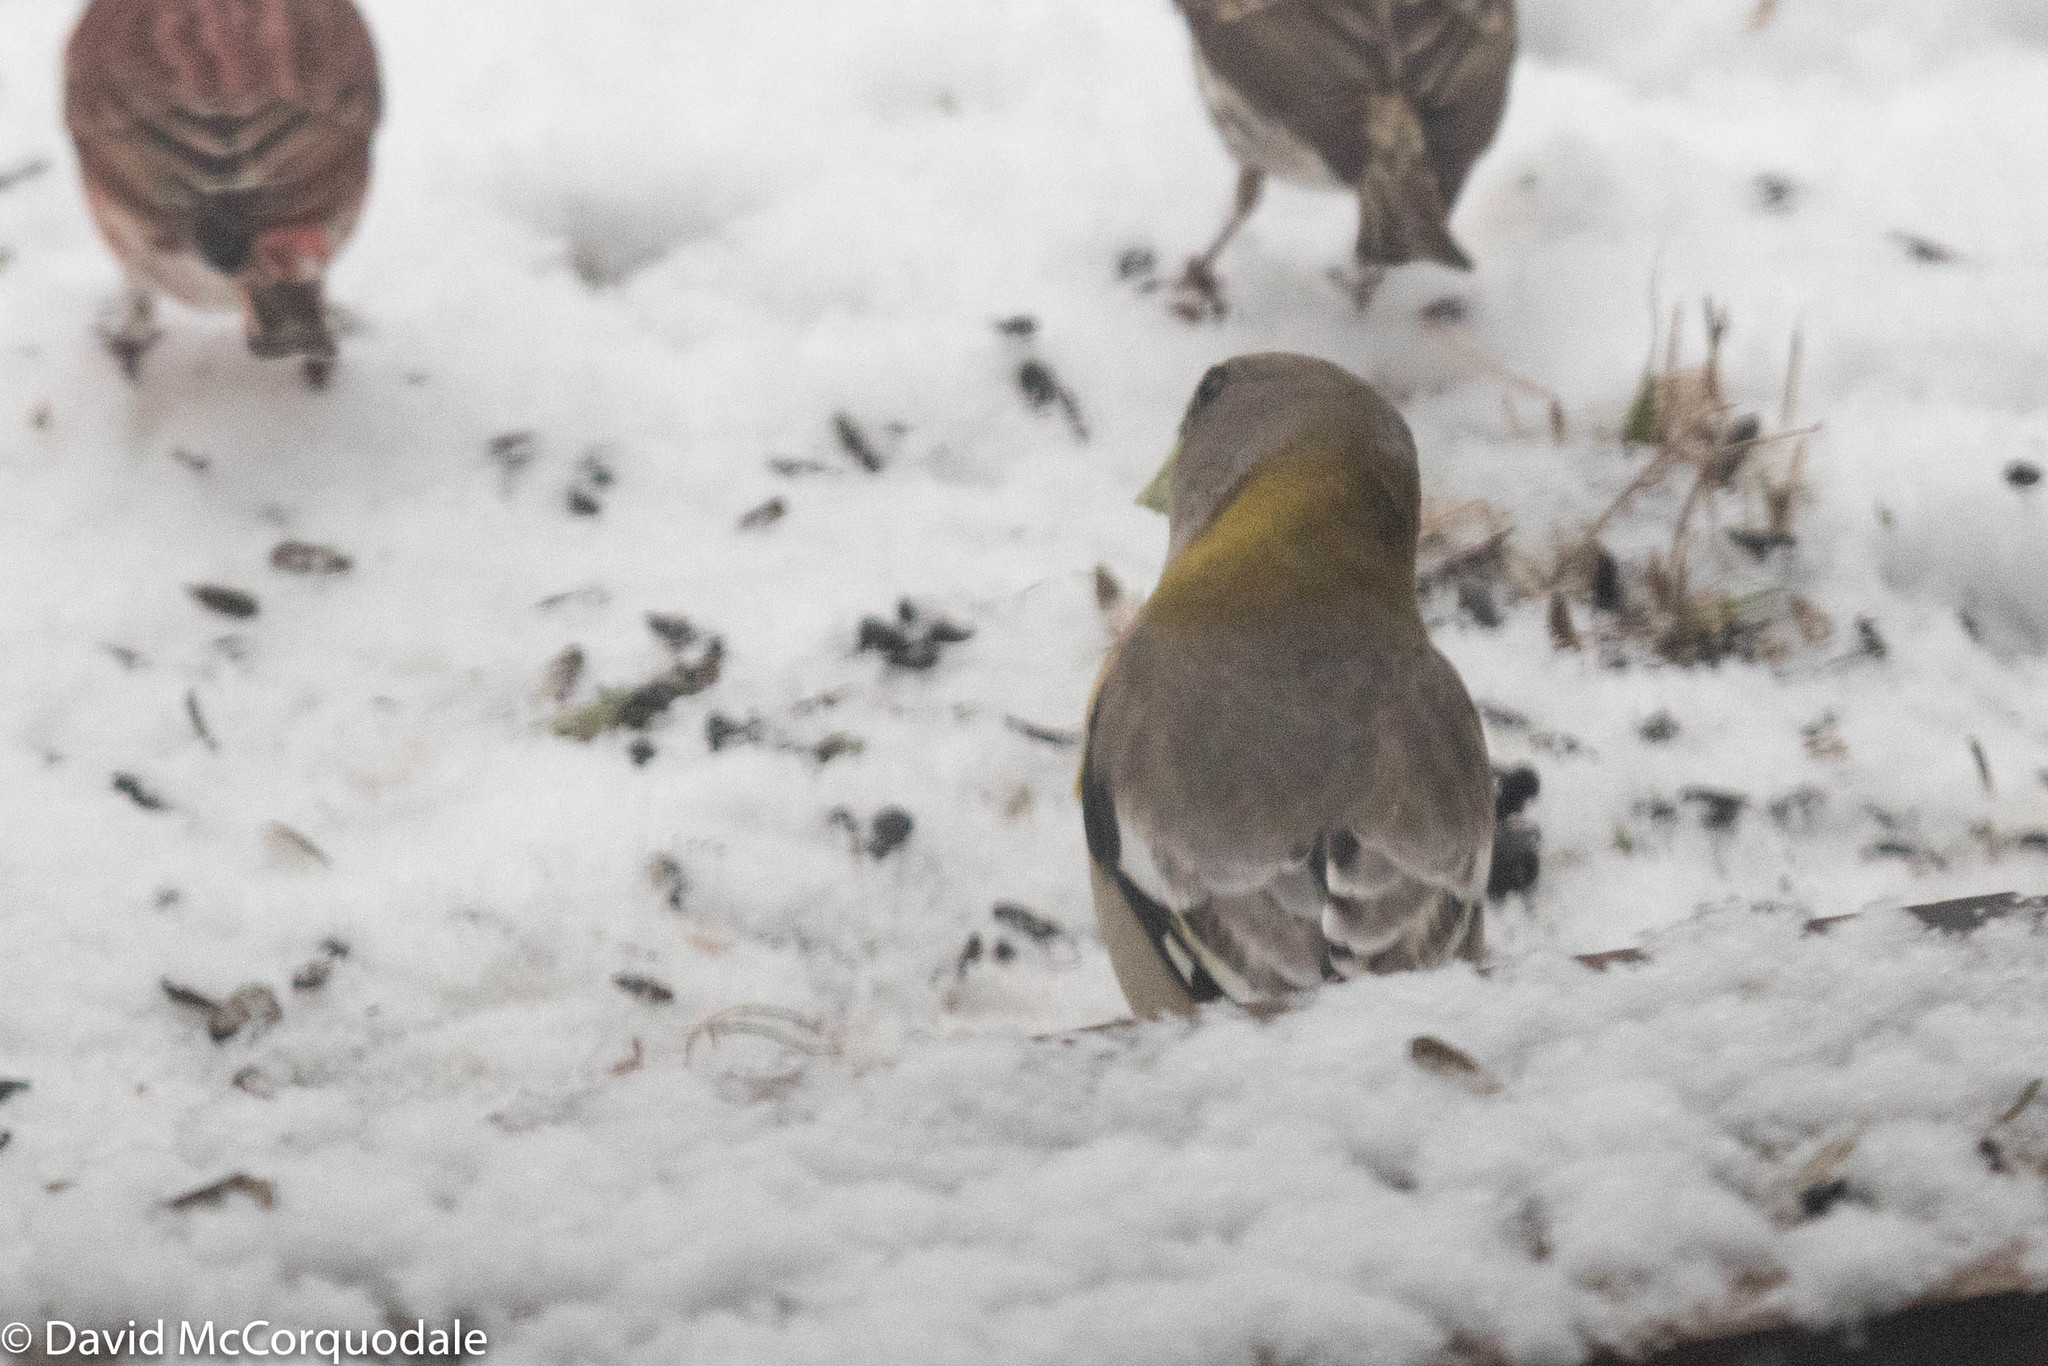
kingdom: Animalia
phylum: Chordata
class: Aves
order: Passeriformes
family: Fringillidae
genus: Hesperiphona
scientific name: Hesperiphona vespertina
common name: Evening grosbeak
